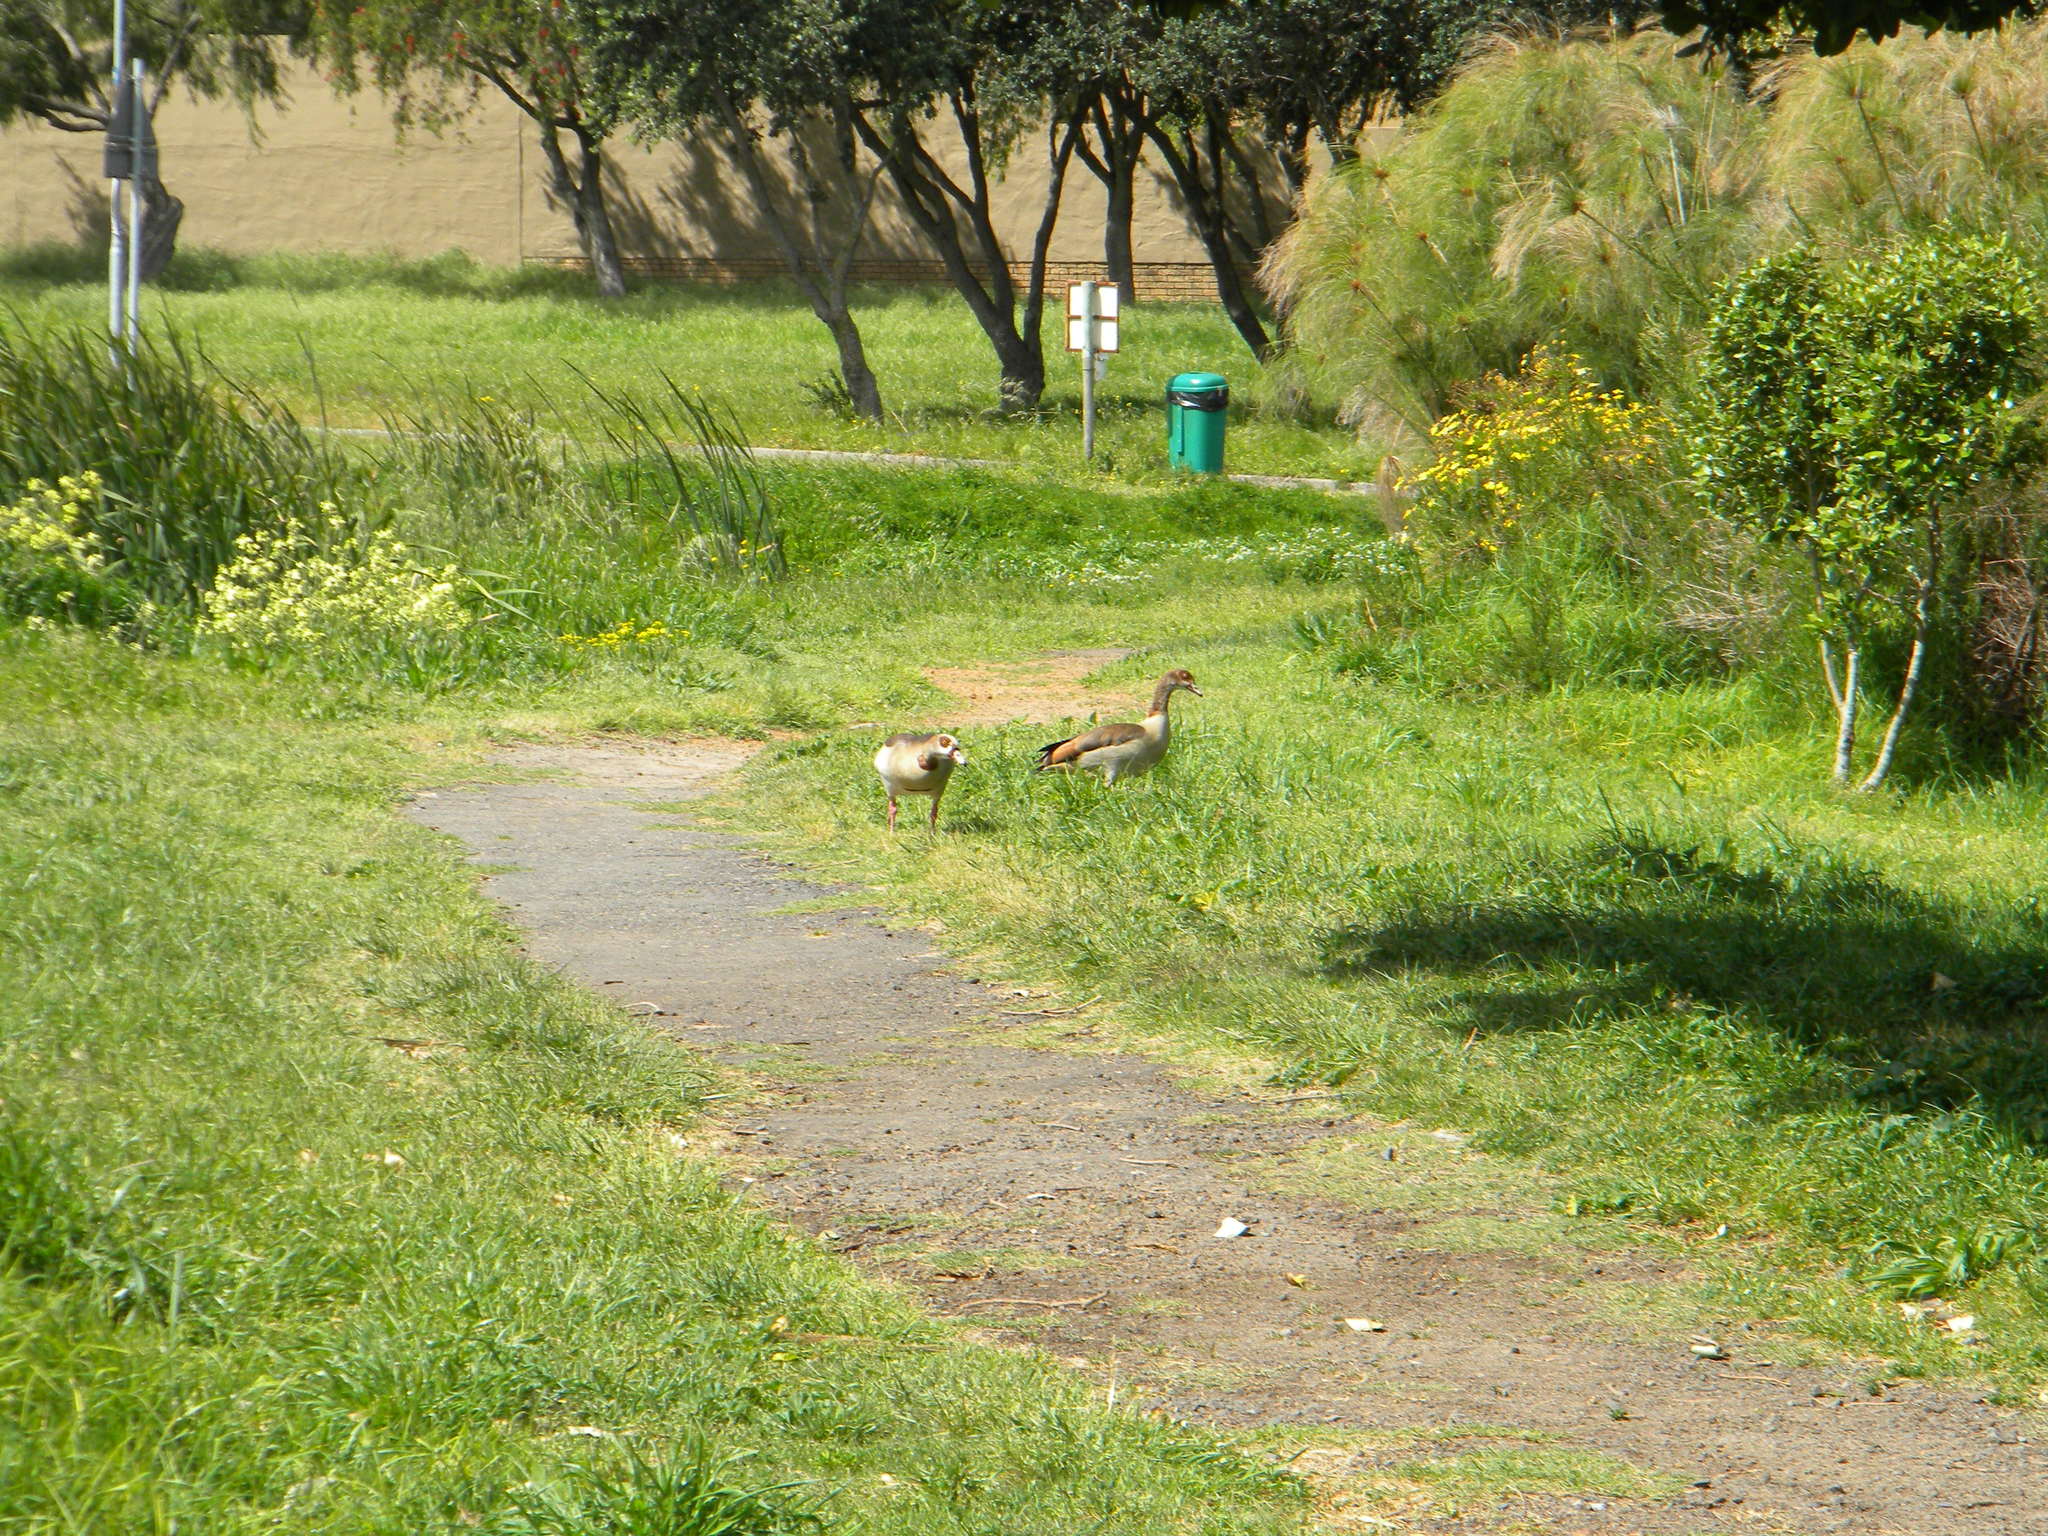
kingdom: Animalia
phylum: Chordata
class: Aves
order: Anseriformes
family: Anatidae
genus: Alopochen
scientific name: Alopochen aegyptiaca
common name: Egyptian goose
